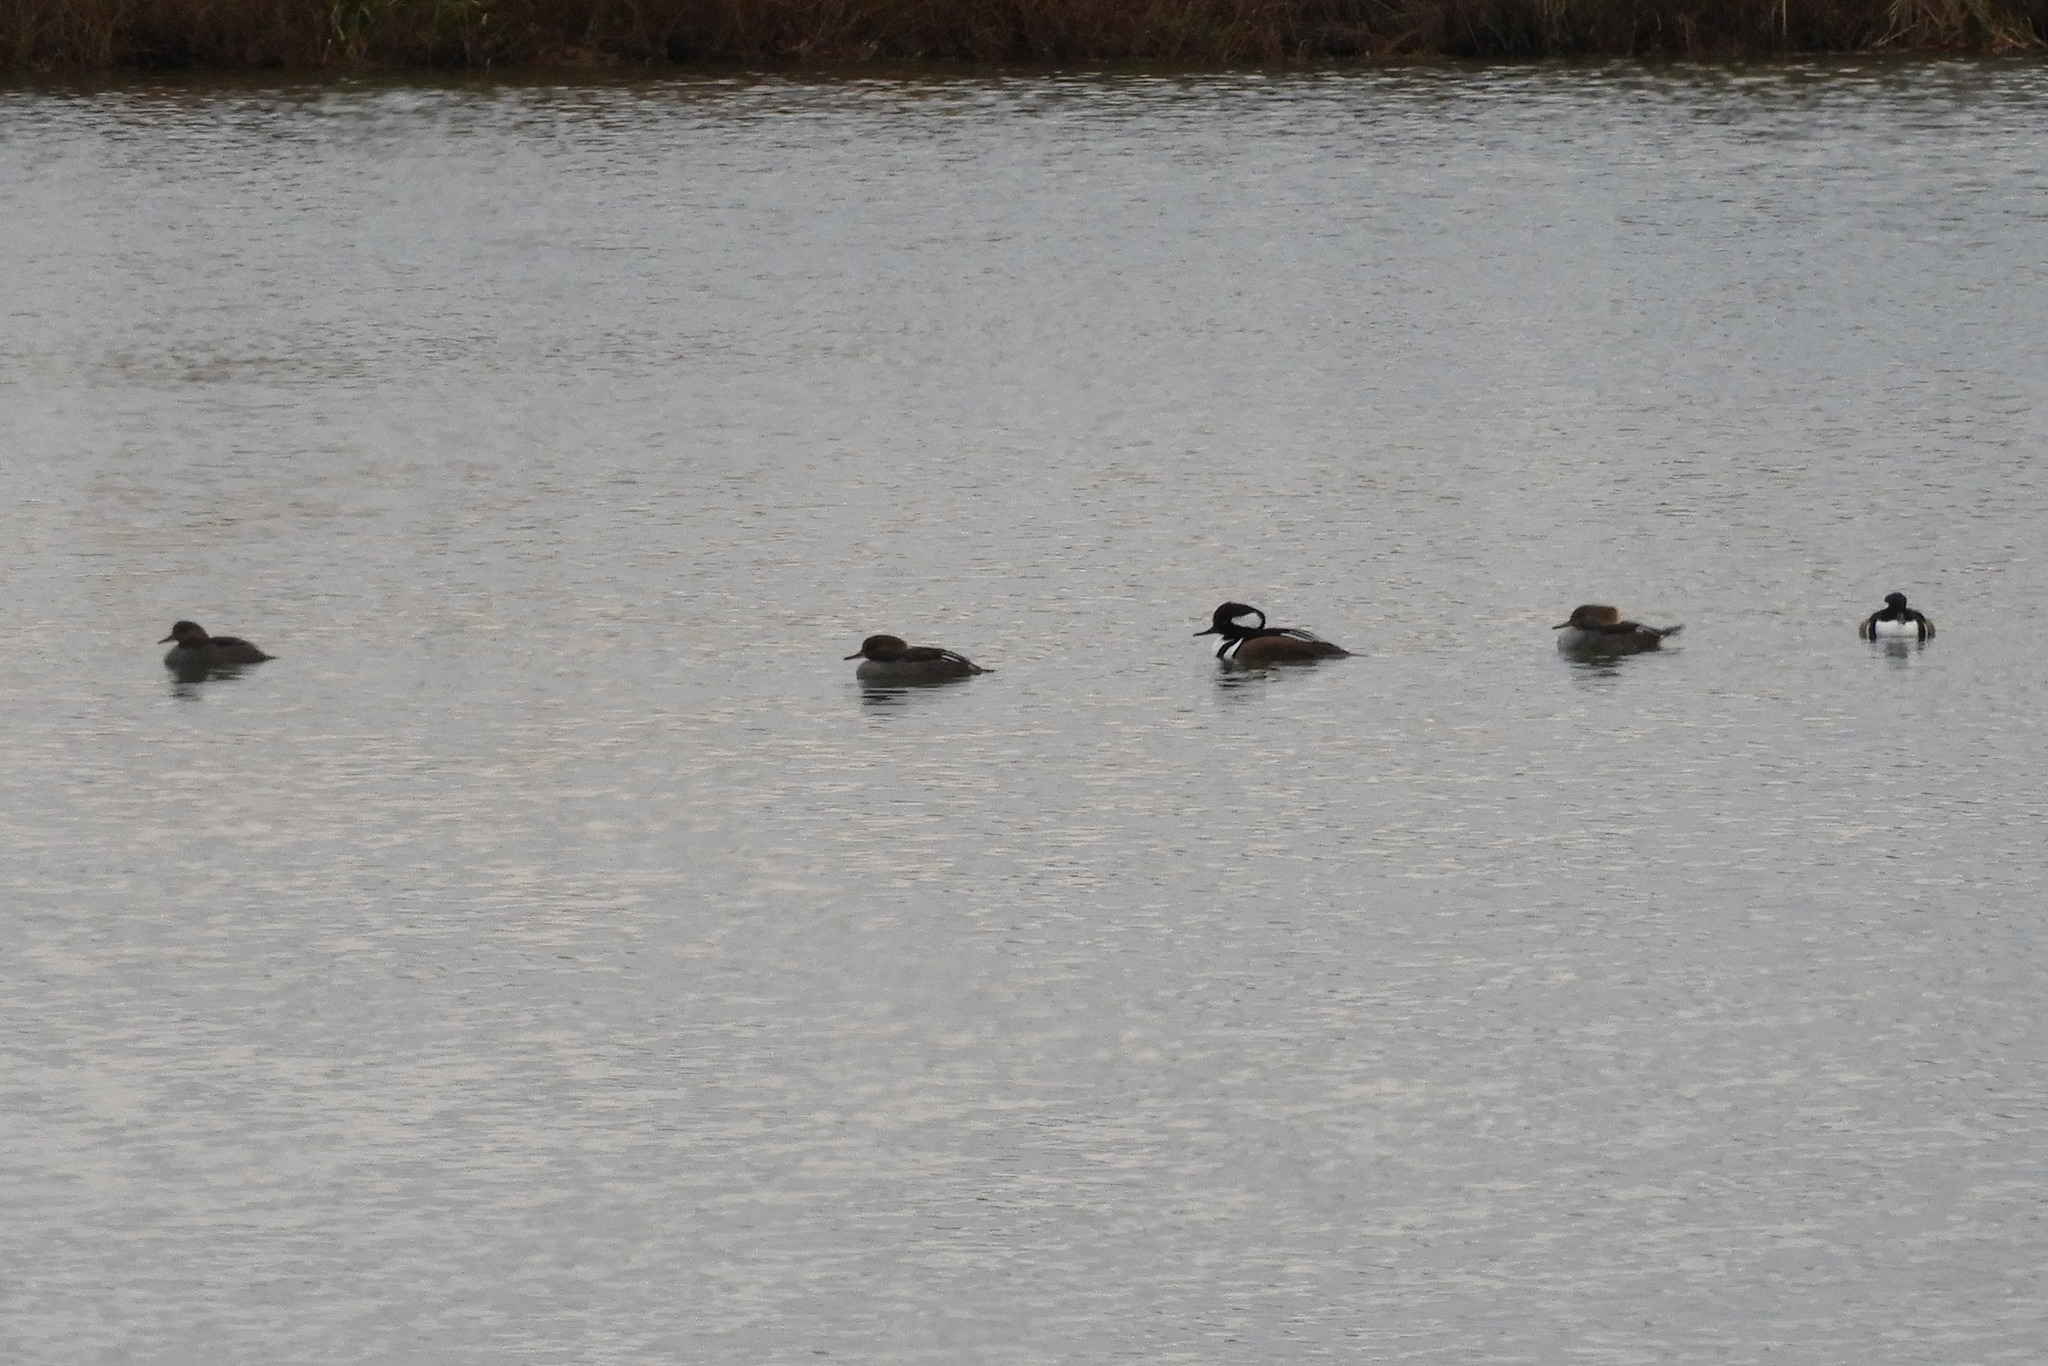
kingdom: Animalia
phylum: Chordata
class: Aves
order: Anseriformes
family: Anatidae
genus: Lophodytes
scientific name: Lophodytes cucullatus
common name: Hooded merganser
